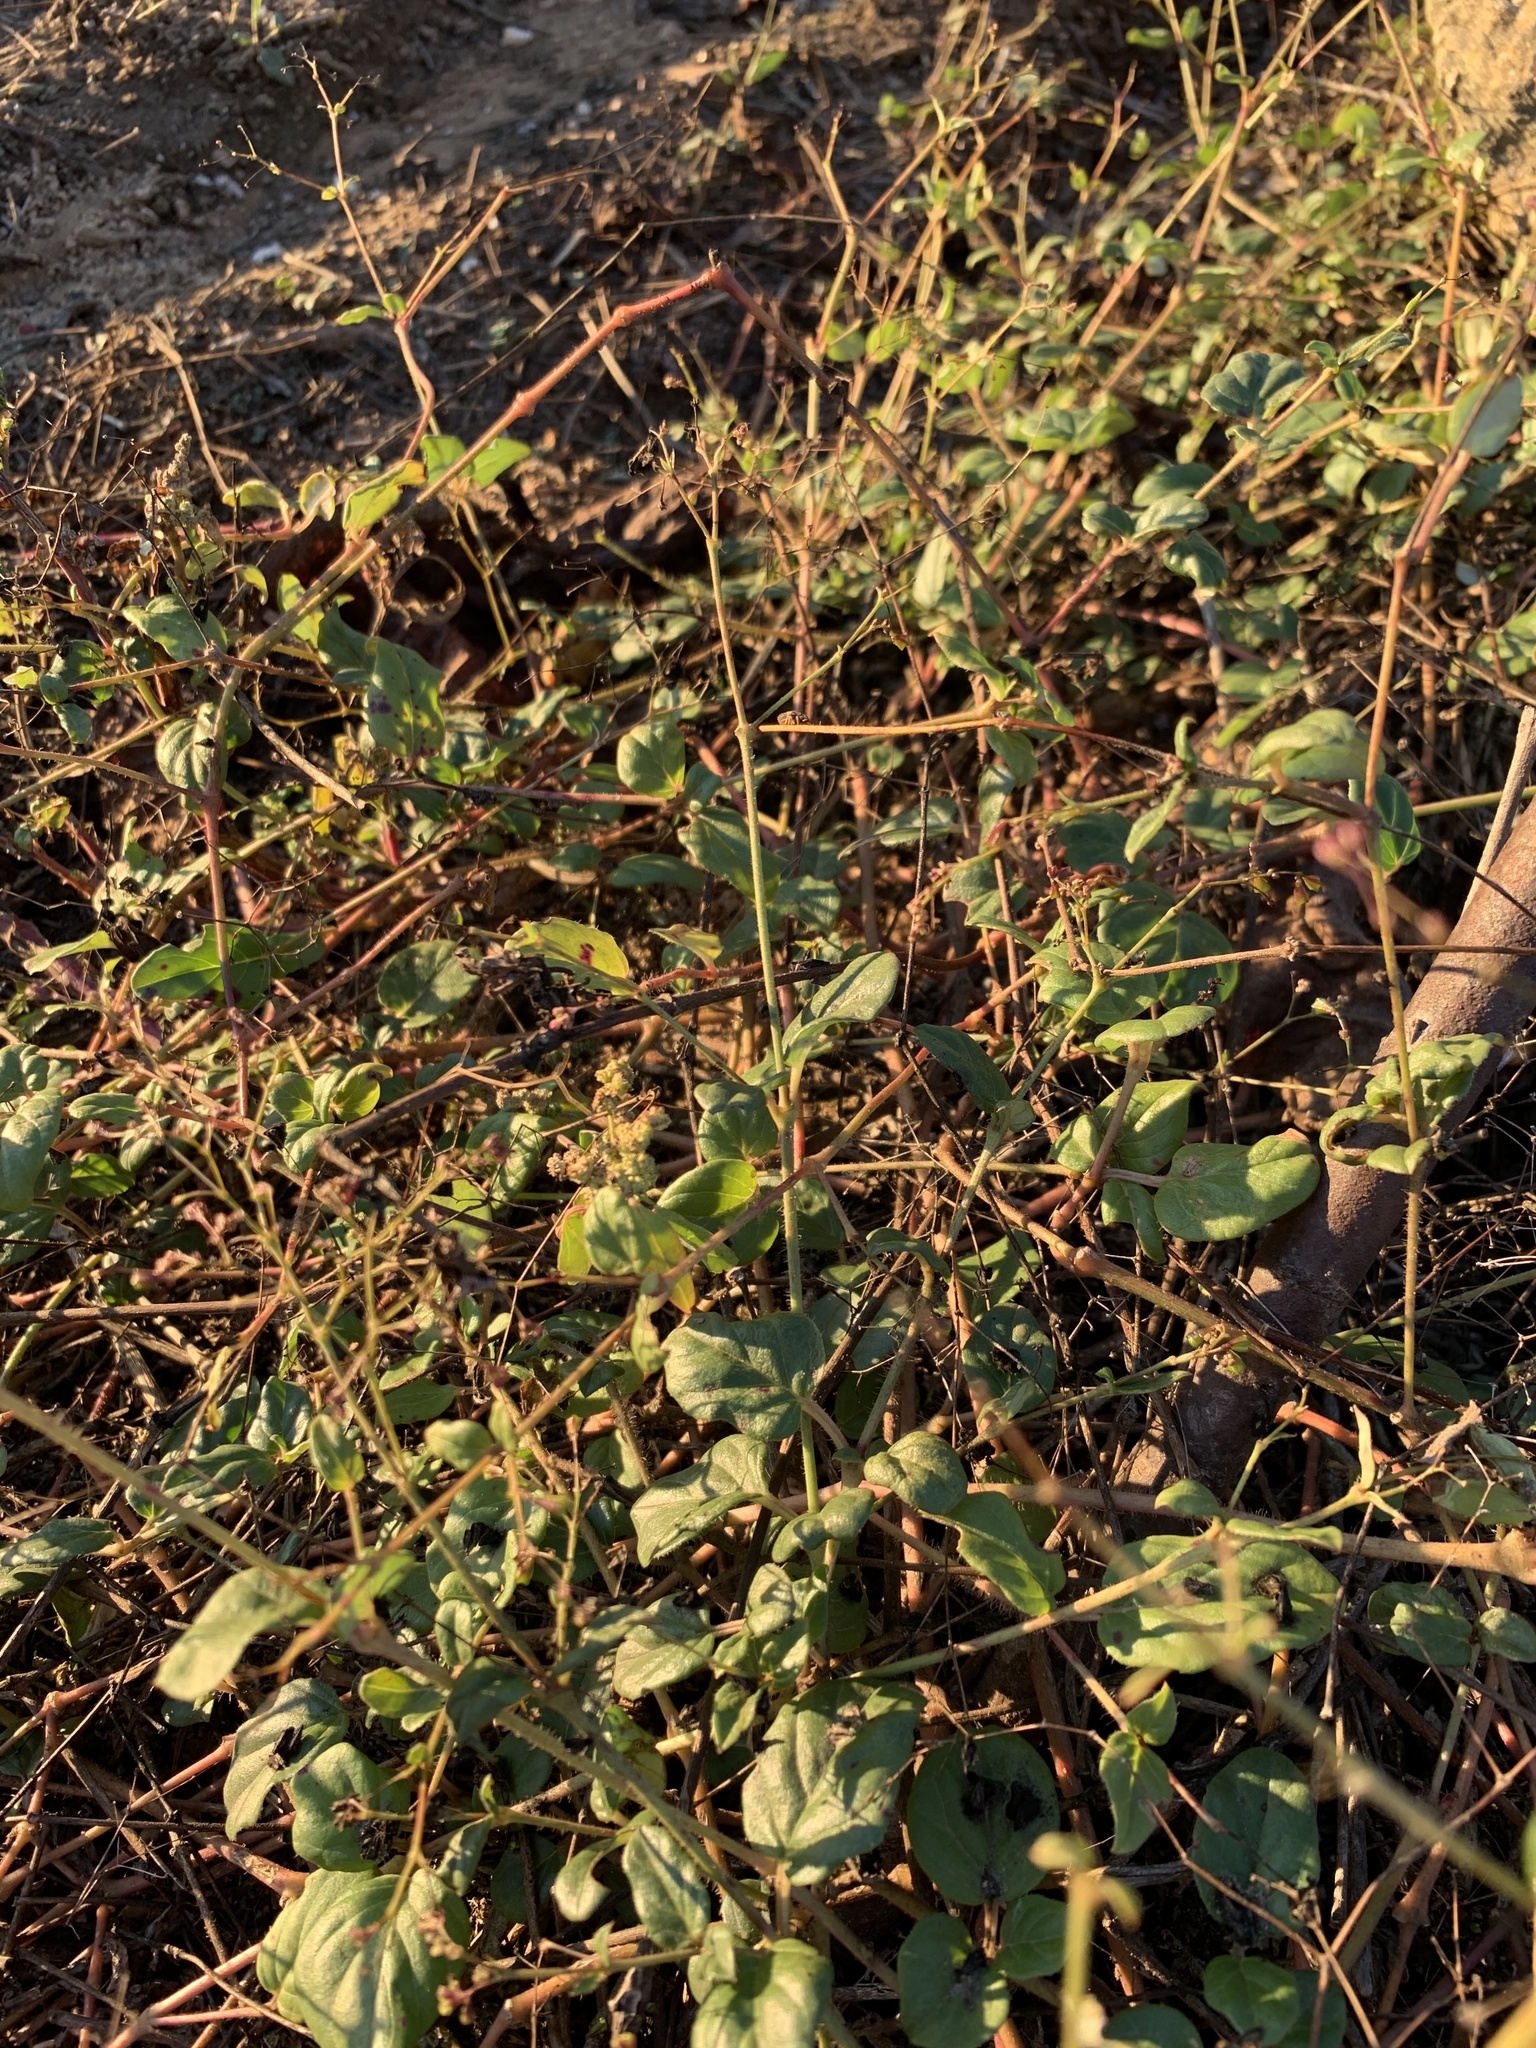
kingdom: Plantae
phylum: Tracheophyta
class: Magnoliopsida
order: Caryophyllales
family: Nyctaginaceae
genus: Boerhavia
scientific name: Boerhavia erecta
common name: Erect spiderling
